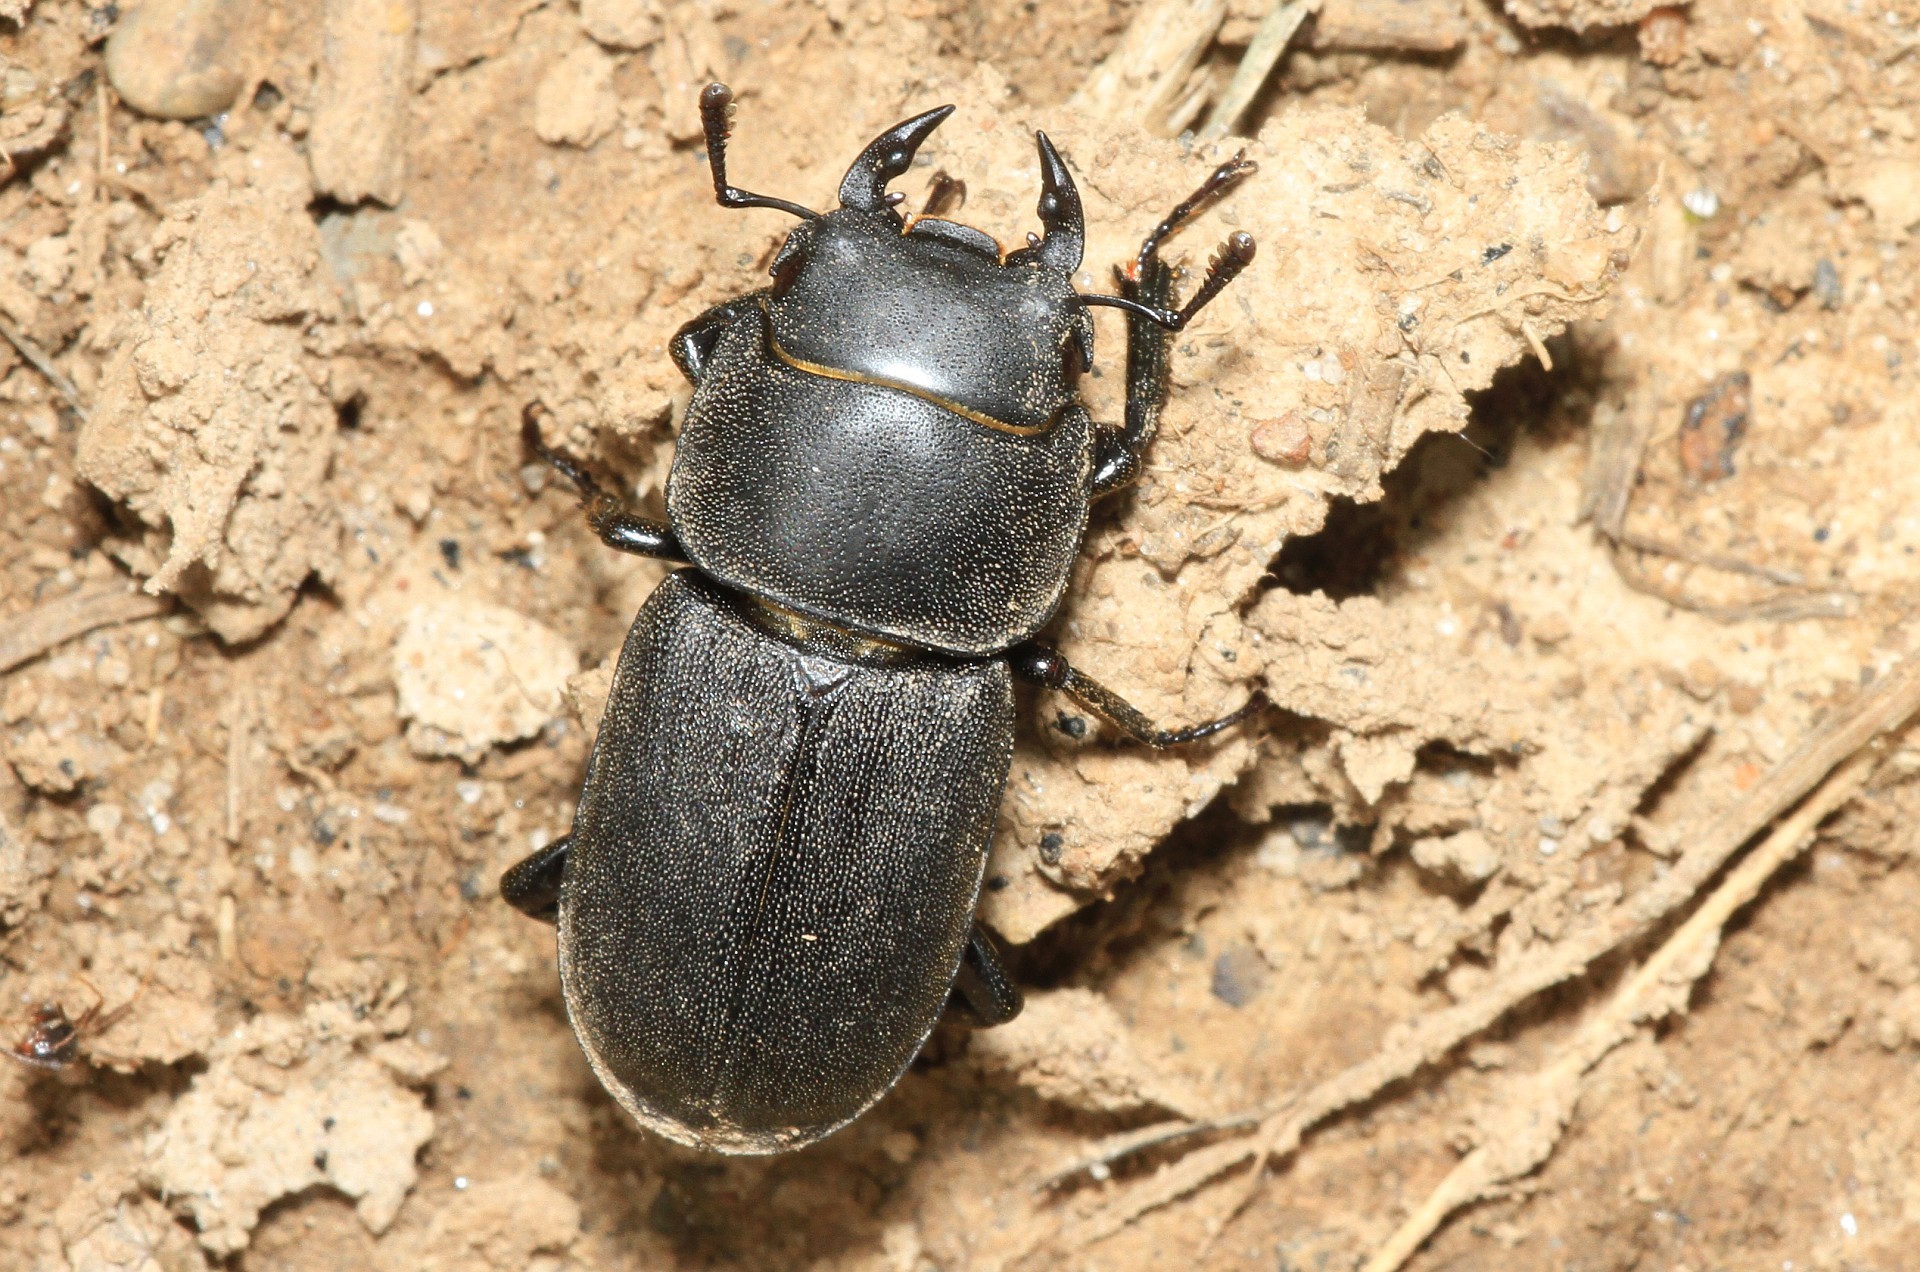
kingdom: Animalia
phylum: Arthropoda
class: Insecta
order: Coleoptera
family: Lucanidae
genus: Dorcus
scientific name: Dorcus parallelipipedus
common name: Lesser stag beetle
